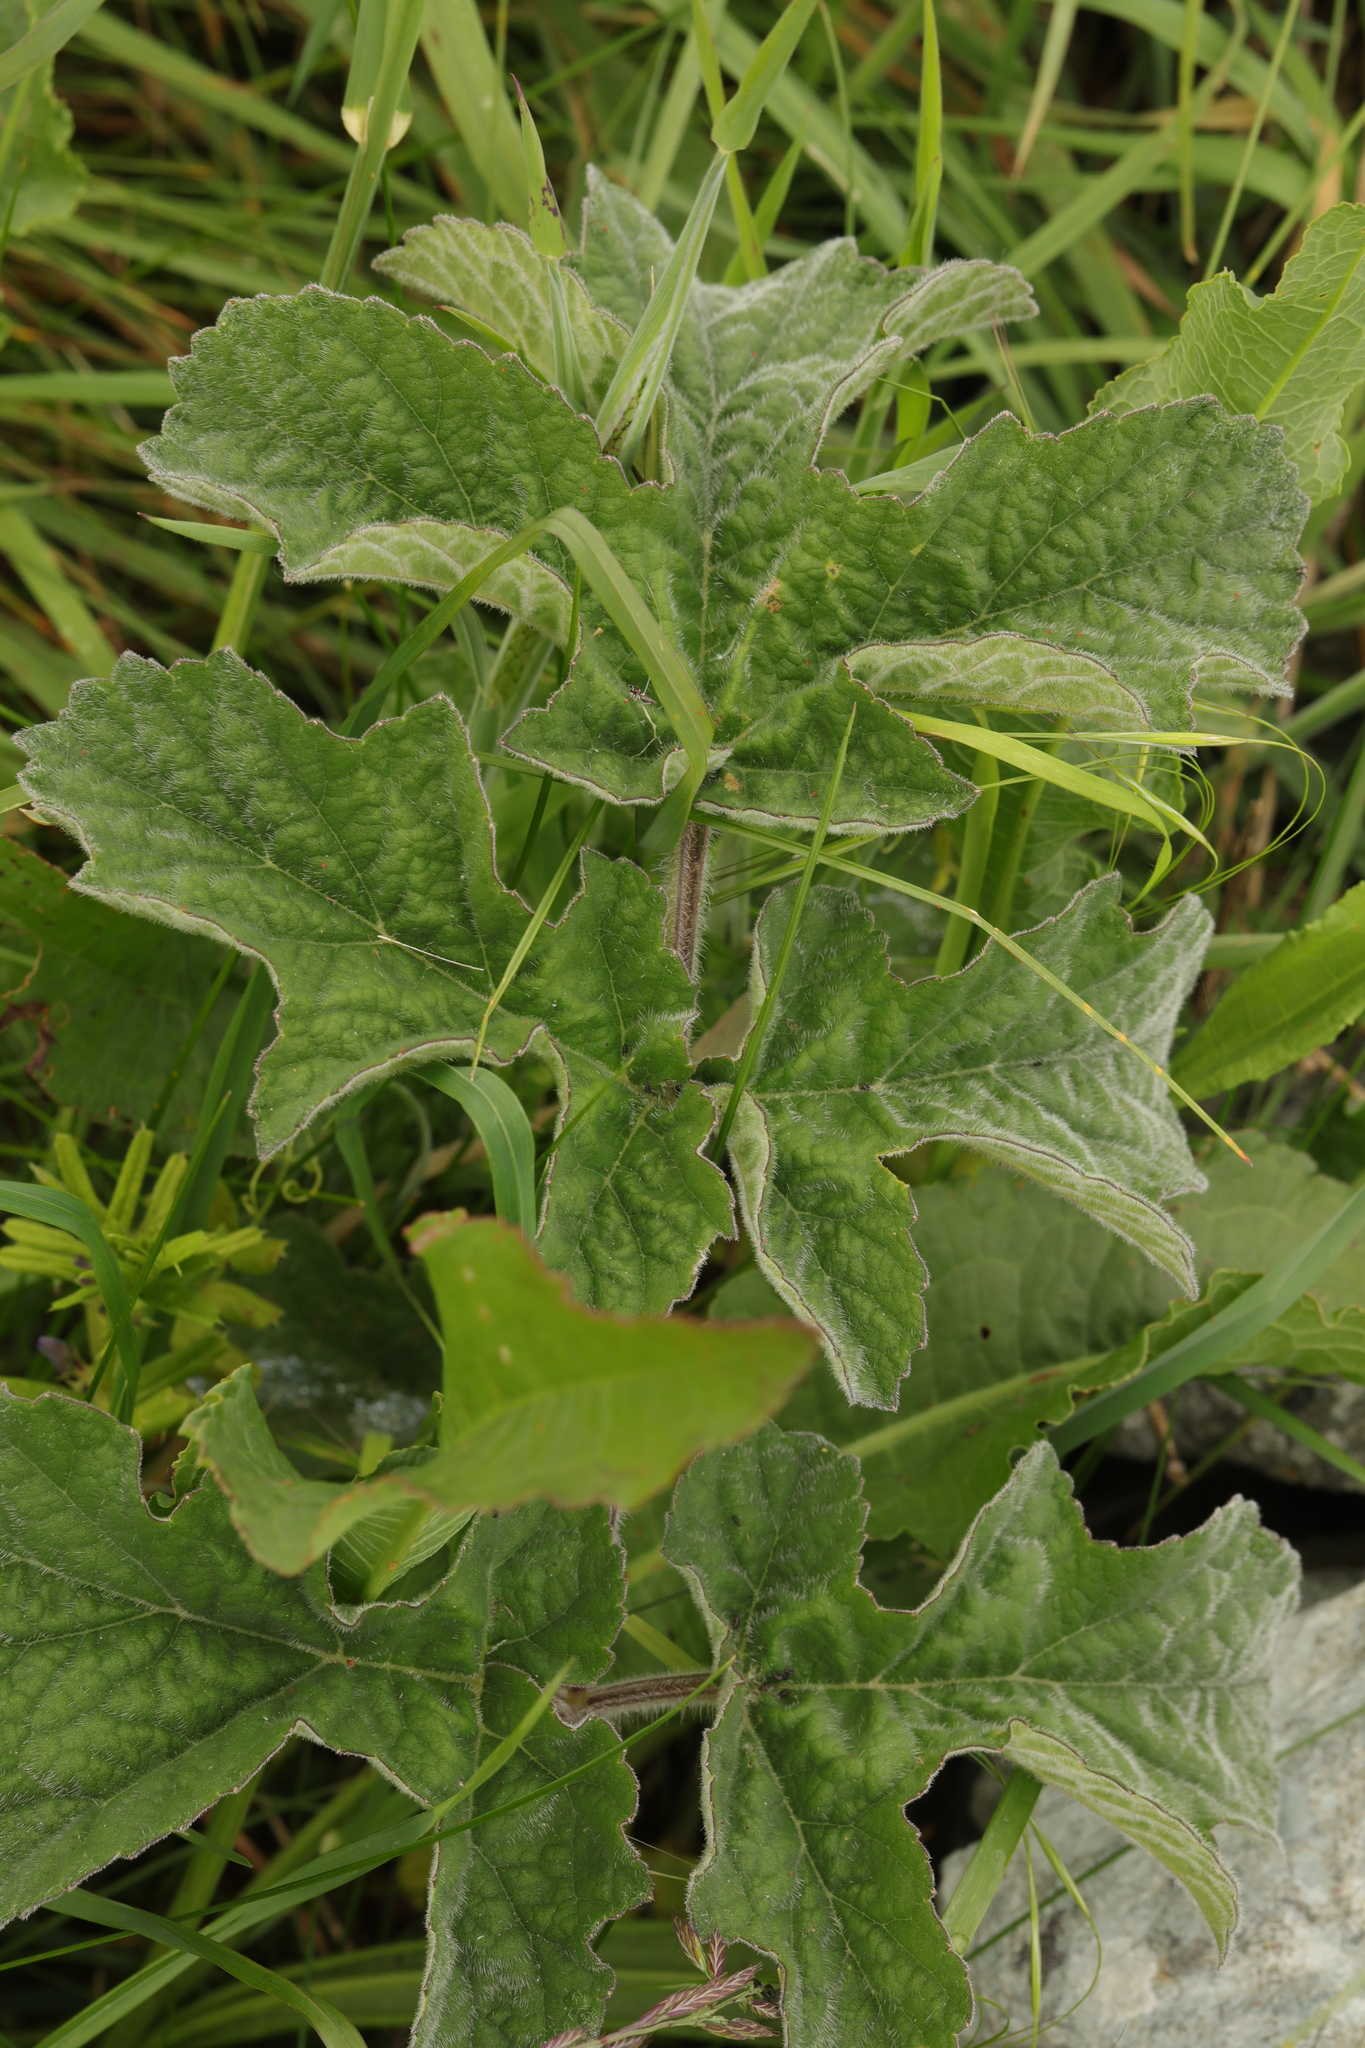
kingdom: Plantae
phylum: Tracheophyta
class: Magnoliopsida
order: Apiales
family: Apiaceae
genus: Heracleum
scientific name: Heracleum sphondylium
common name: Hogweed
